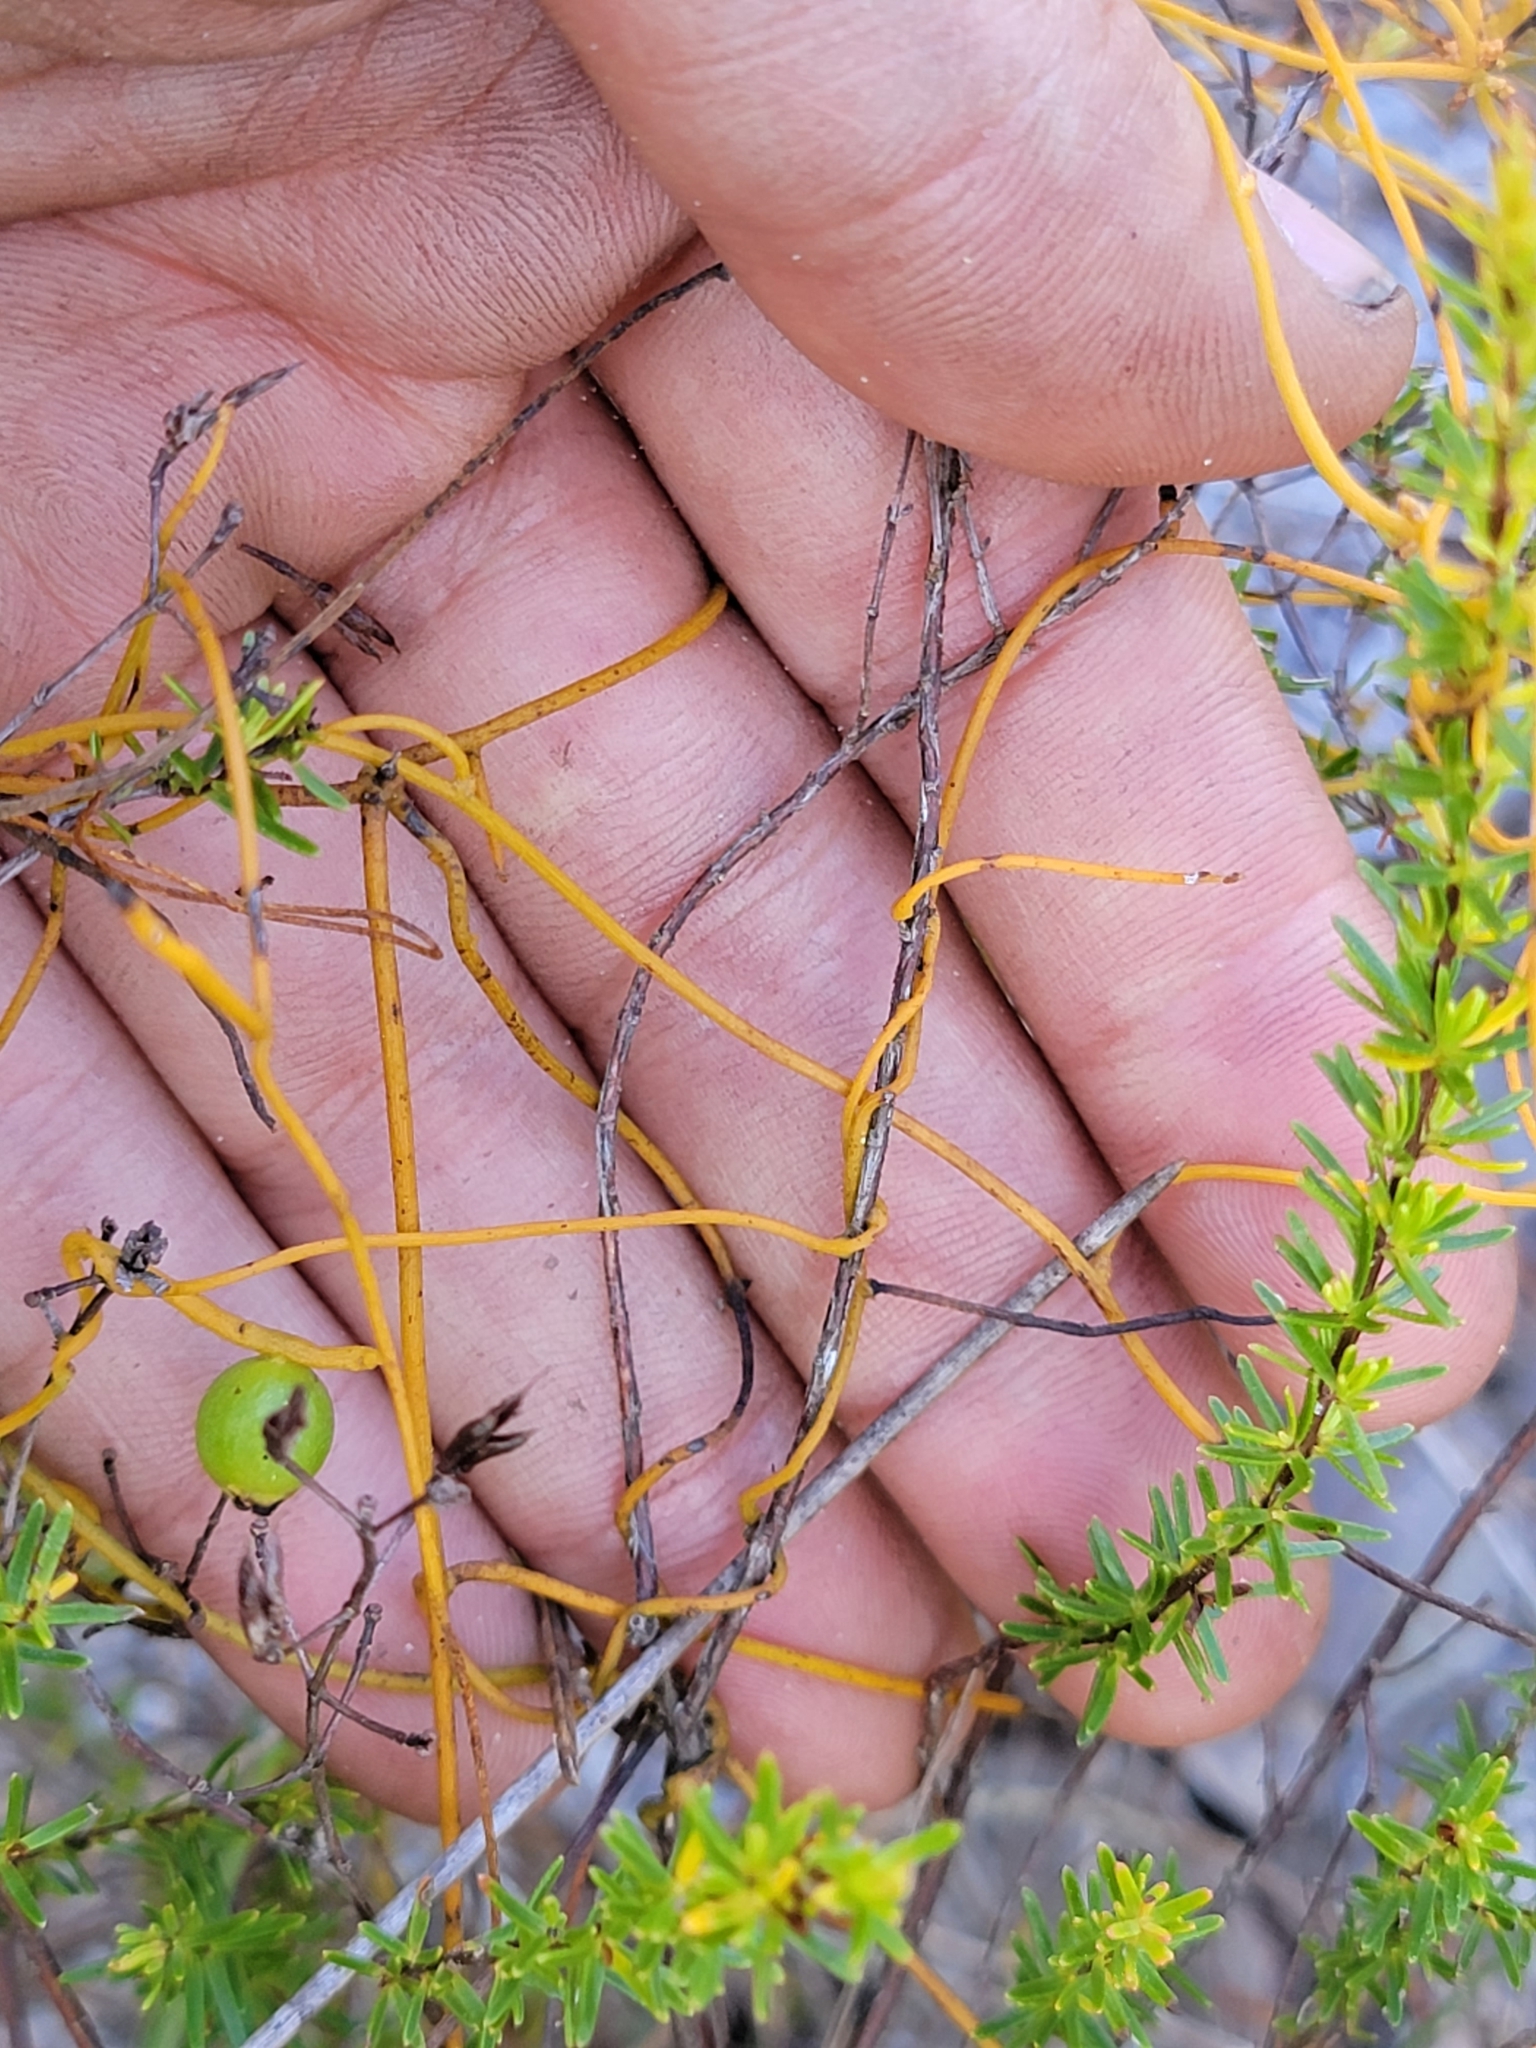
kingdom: Plantae
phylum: Tracheophyta
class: Magnoliopsida
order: Laurales
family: Lauraceae
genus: Cassytha
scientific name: Cassytha filiformis
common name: Dodder-laurel
